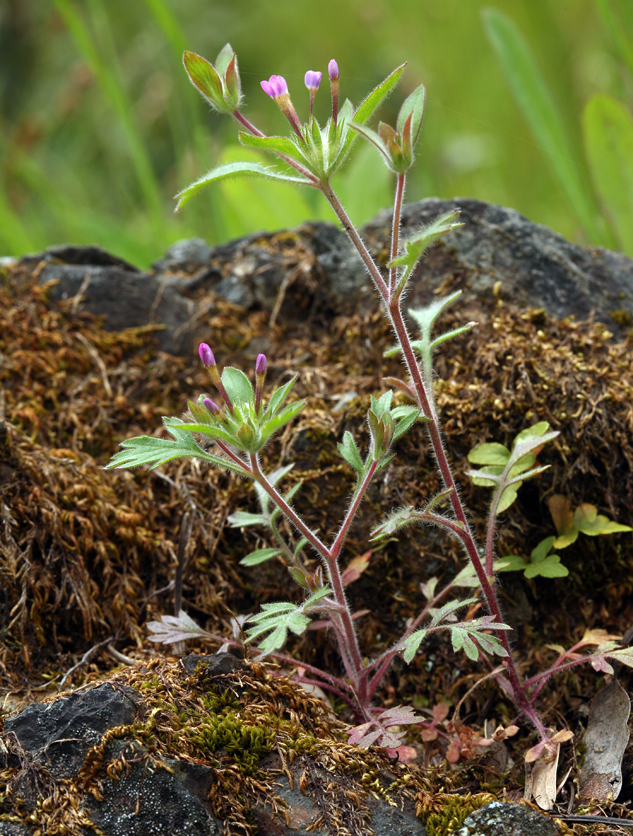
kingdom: Plantae
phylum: Tracheophyta
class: Magnoliopsida
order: Ericales
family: Polemoniaceae
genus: Collomia
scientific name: Collomia heterophylla
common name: Variable-leaved collomia
